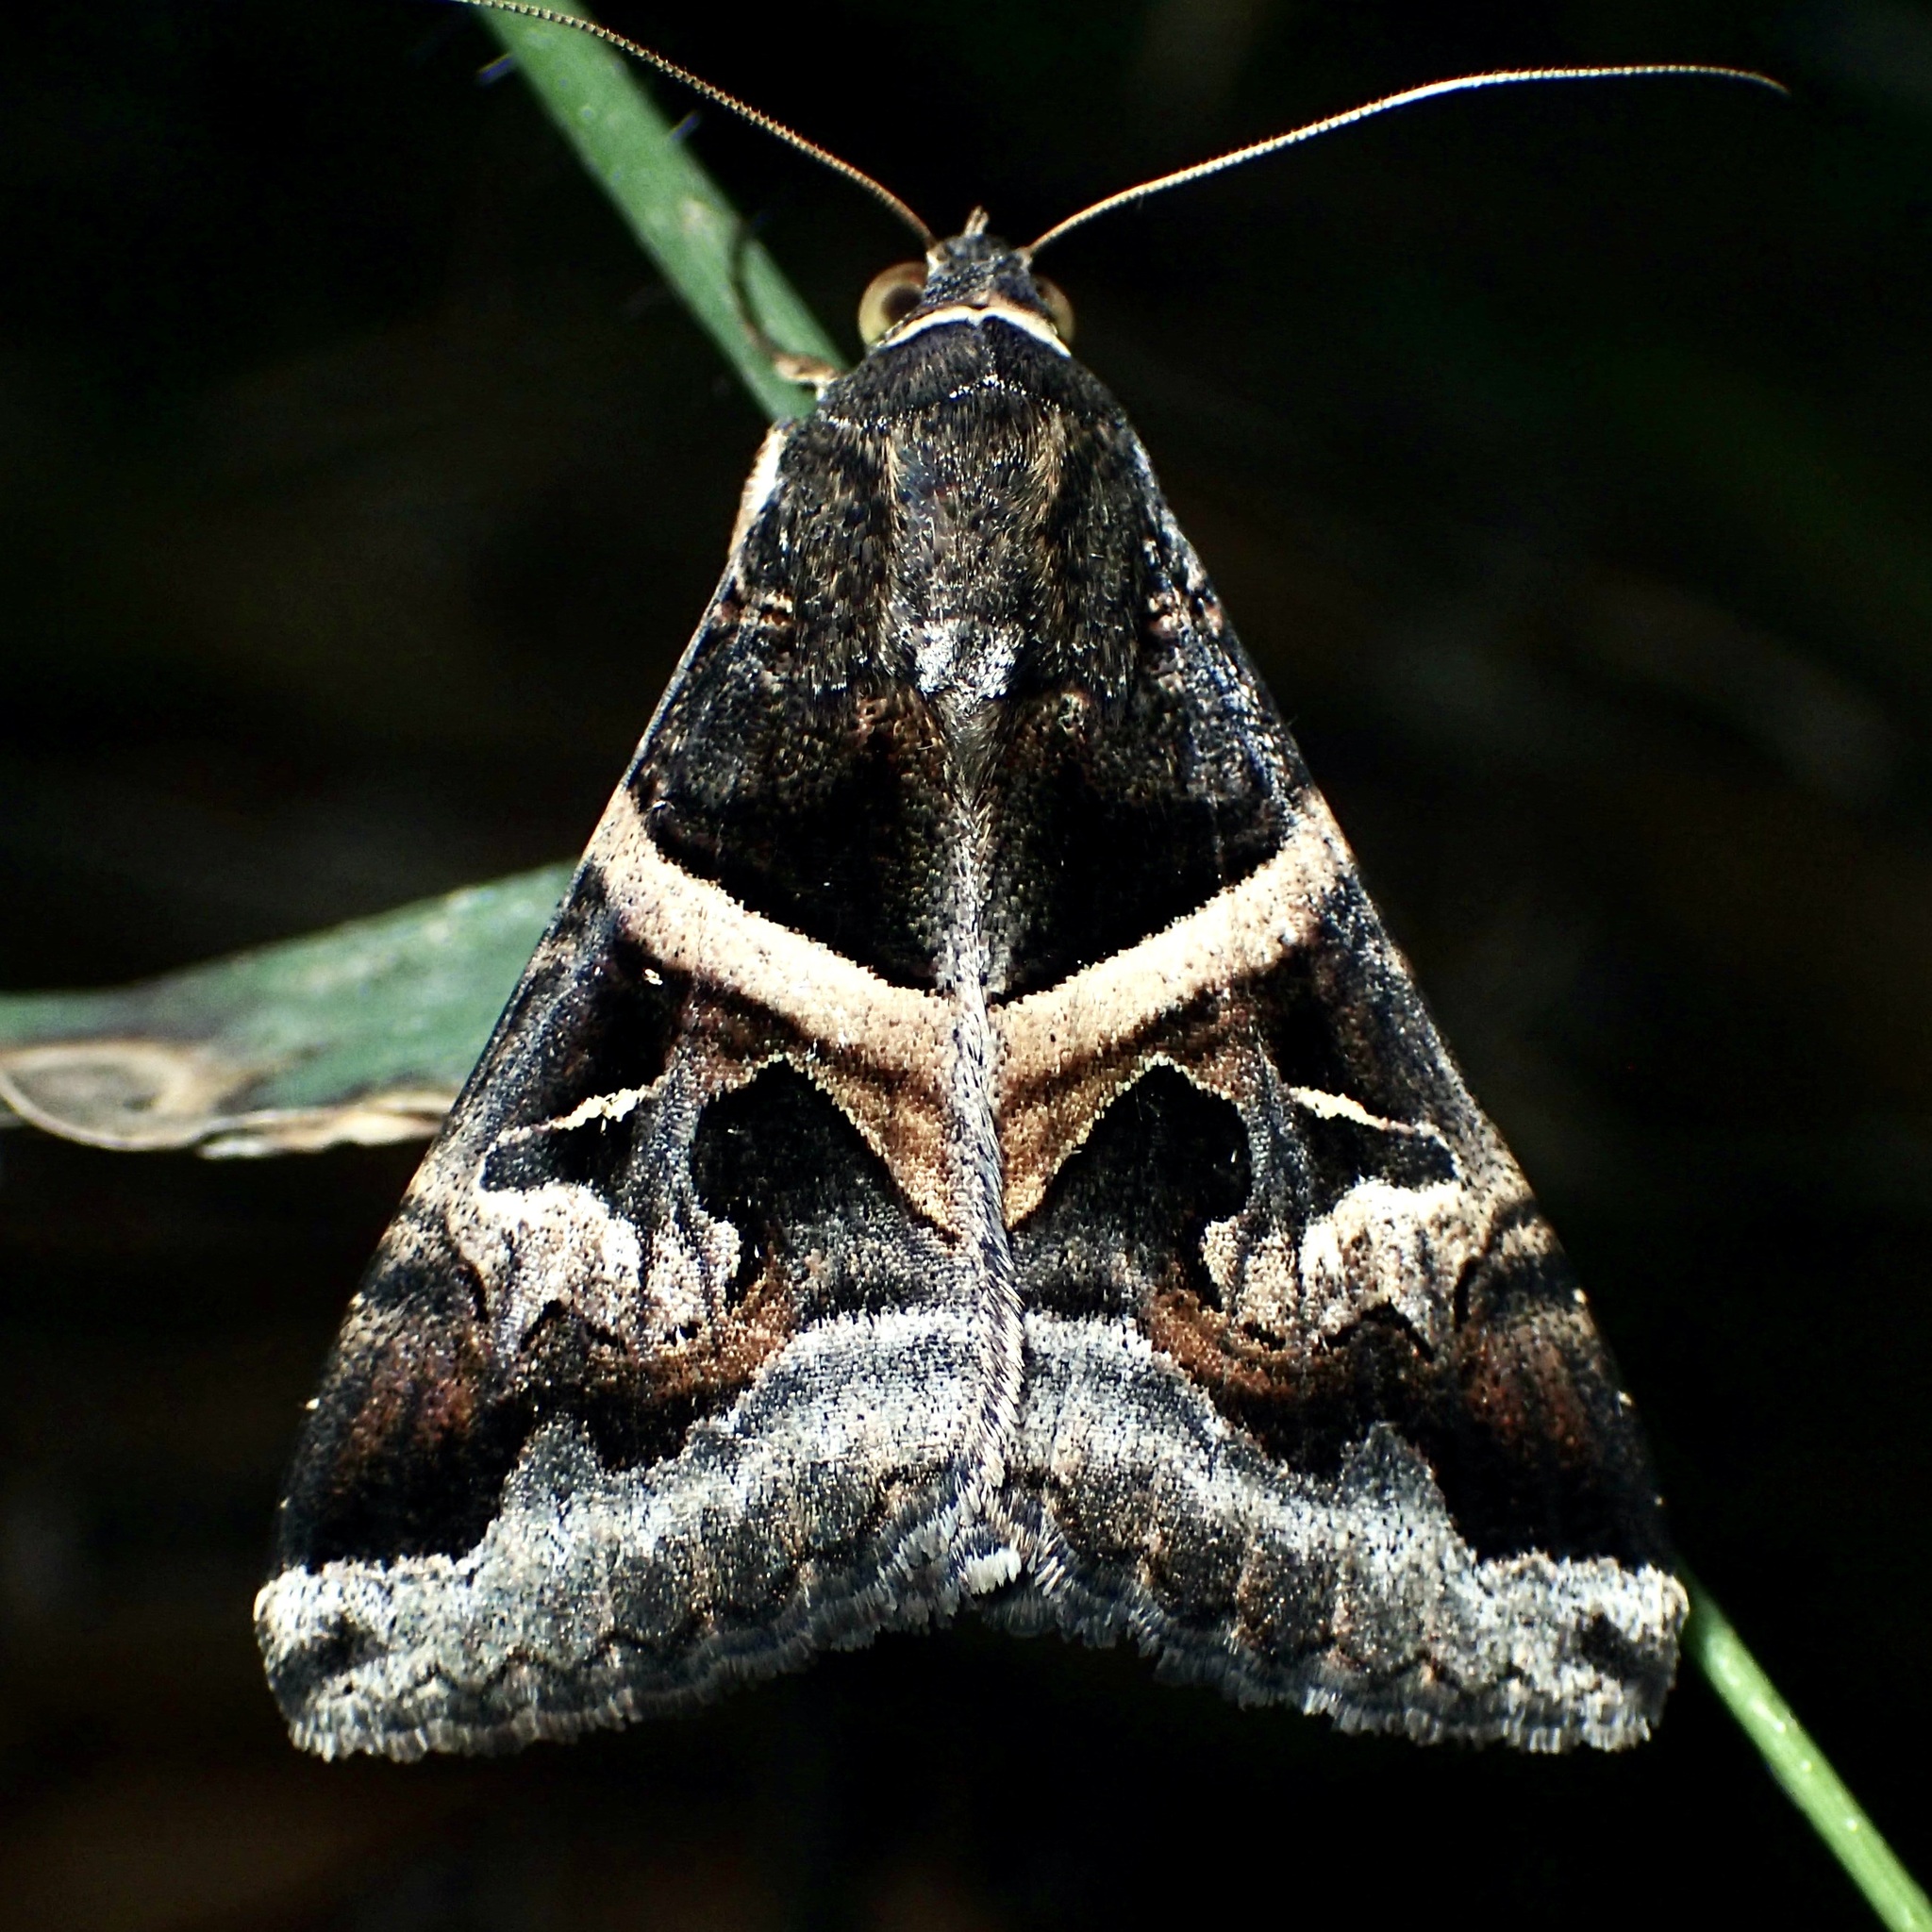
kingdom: Animalia
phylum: Arthropoda
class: Insecta
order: Lepidoptera
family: Erebidae
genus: Melipotis
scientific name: Melipotis indomita
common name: Moth
